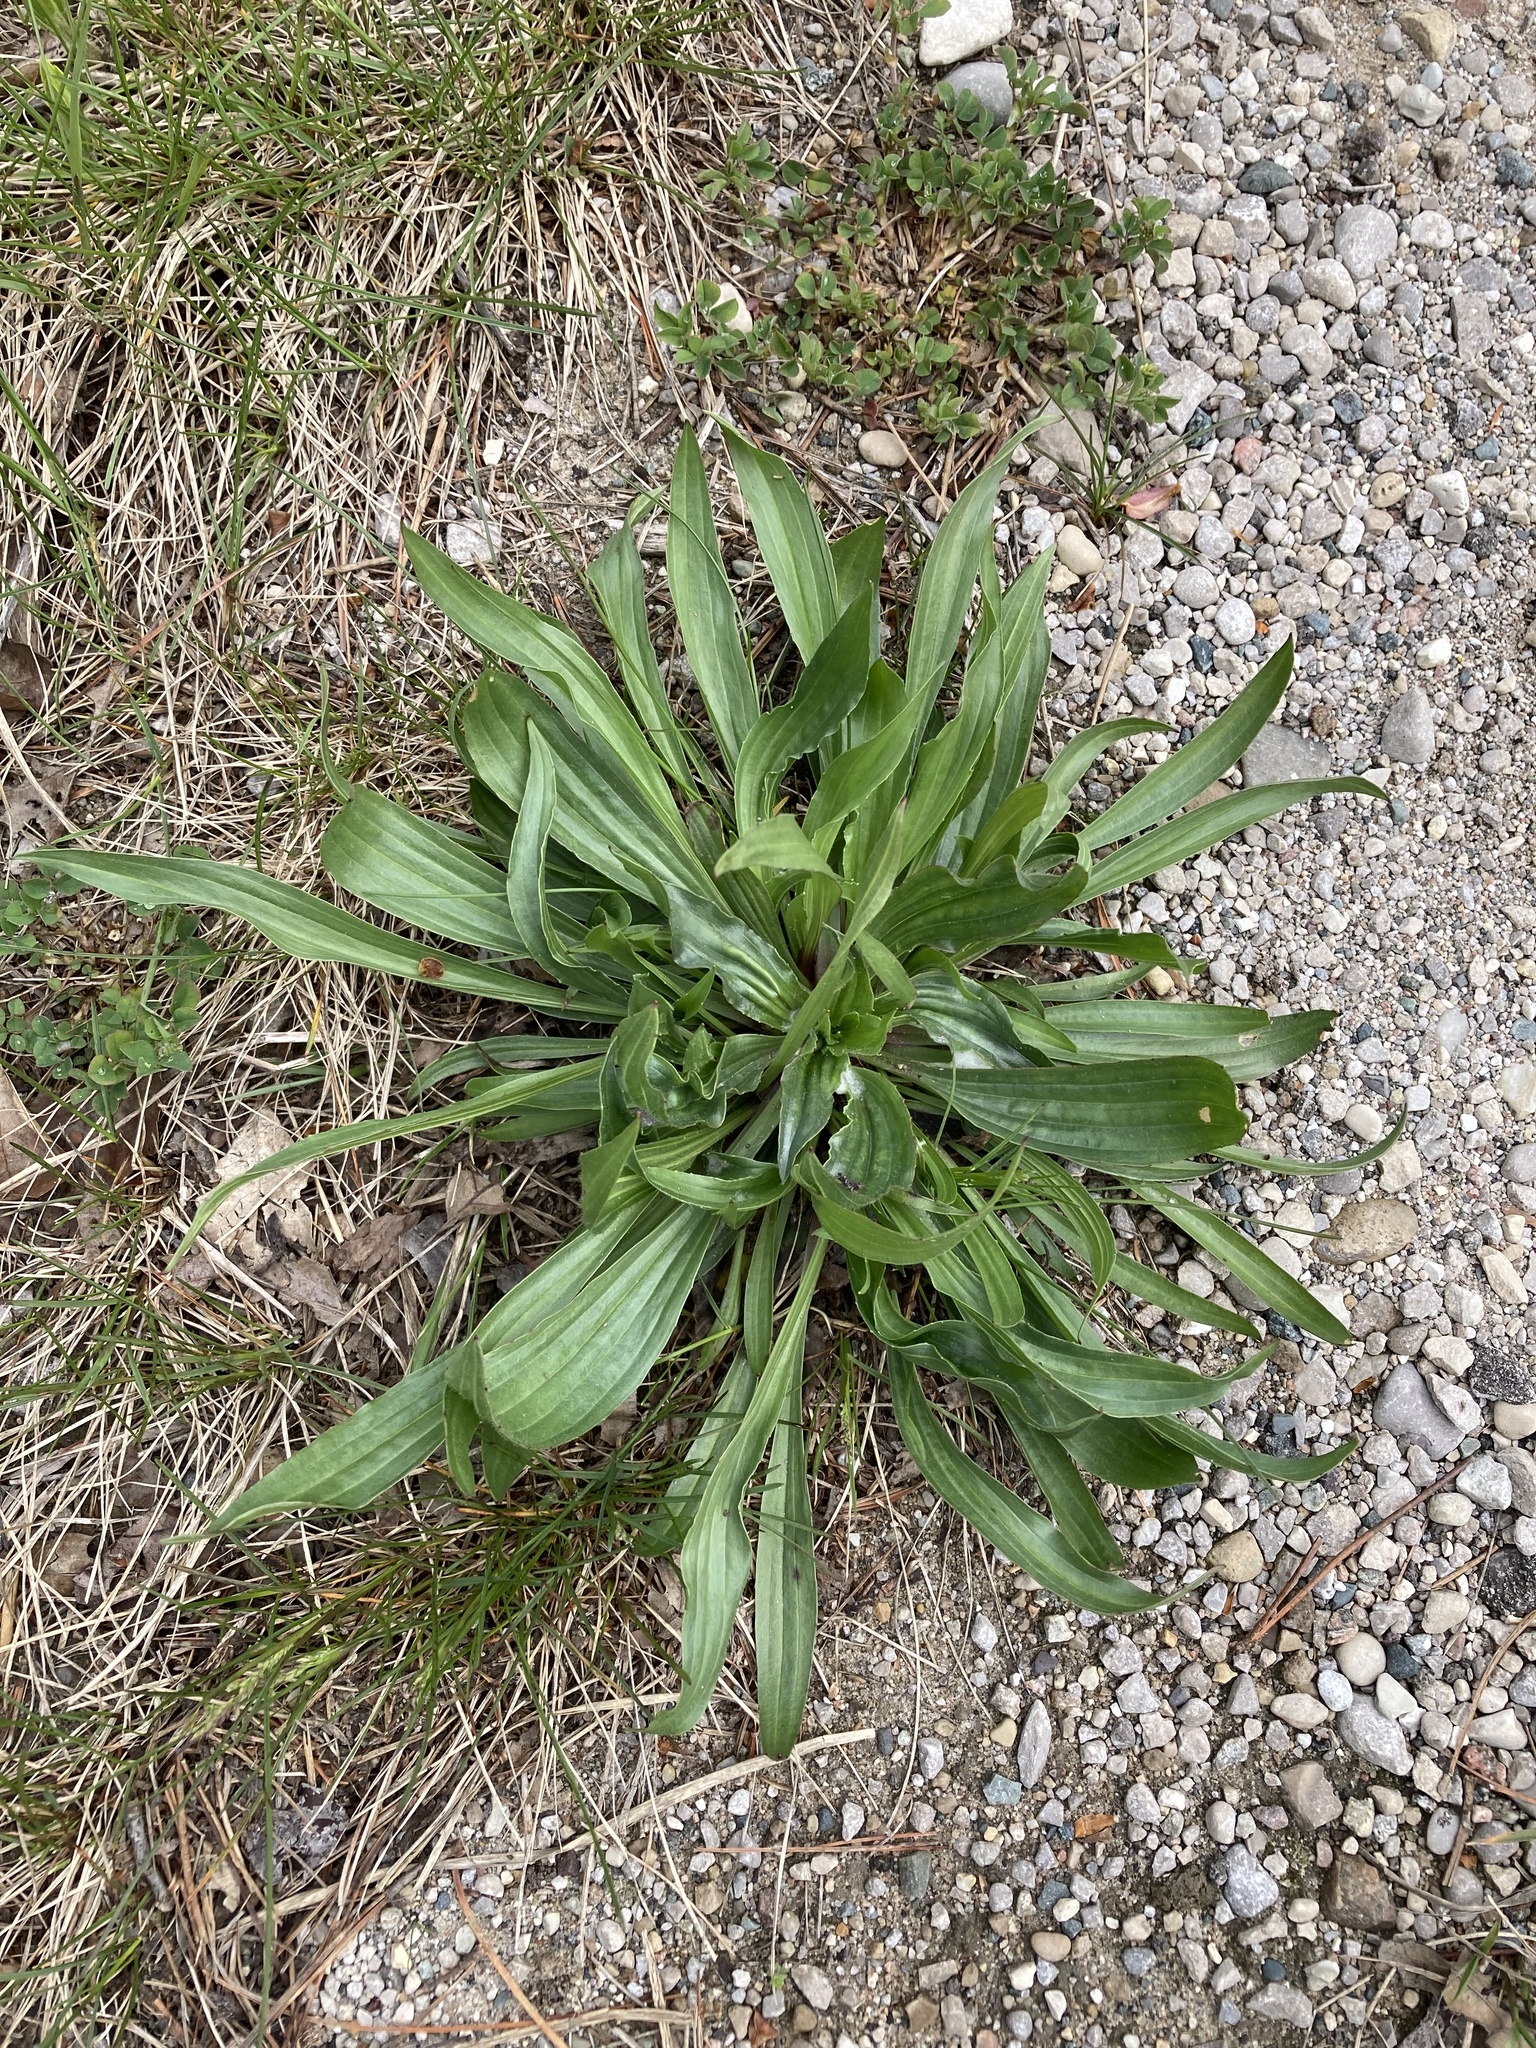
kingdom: Plantae
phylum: Tracheophyta
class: Magnoliopsida
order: Lamiales
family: Plantaginaceae
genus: Plantago
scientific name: Plantago lanceolata
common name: Ribwort plantain
